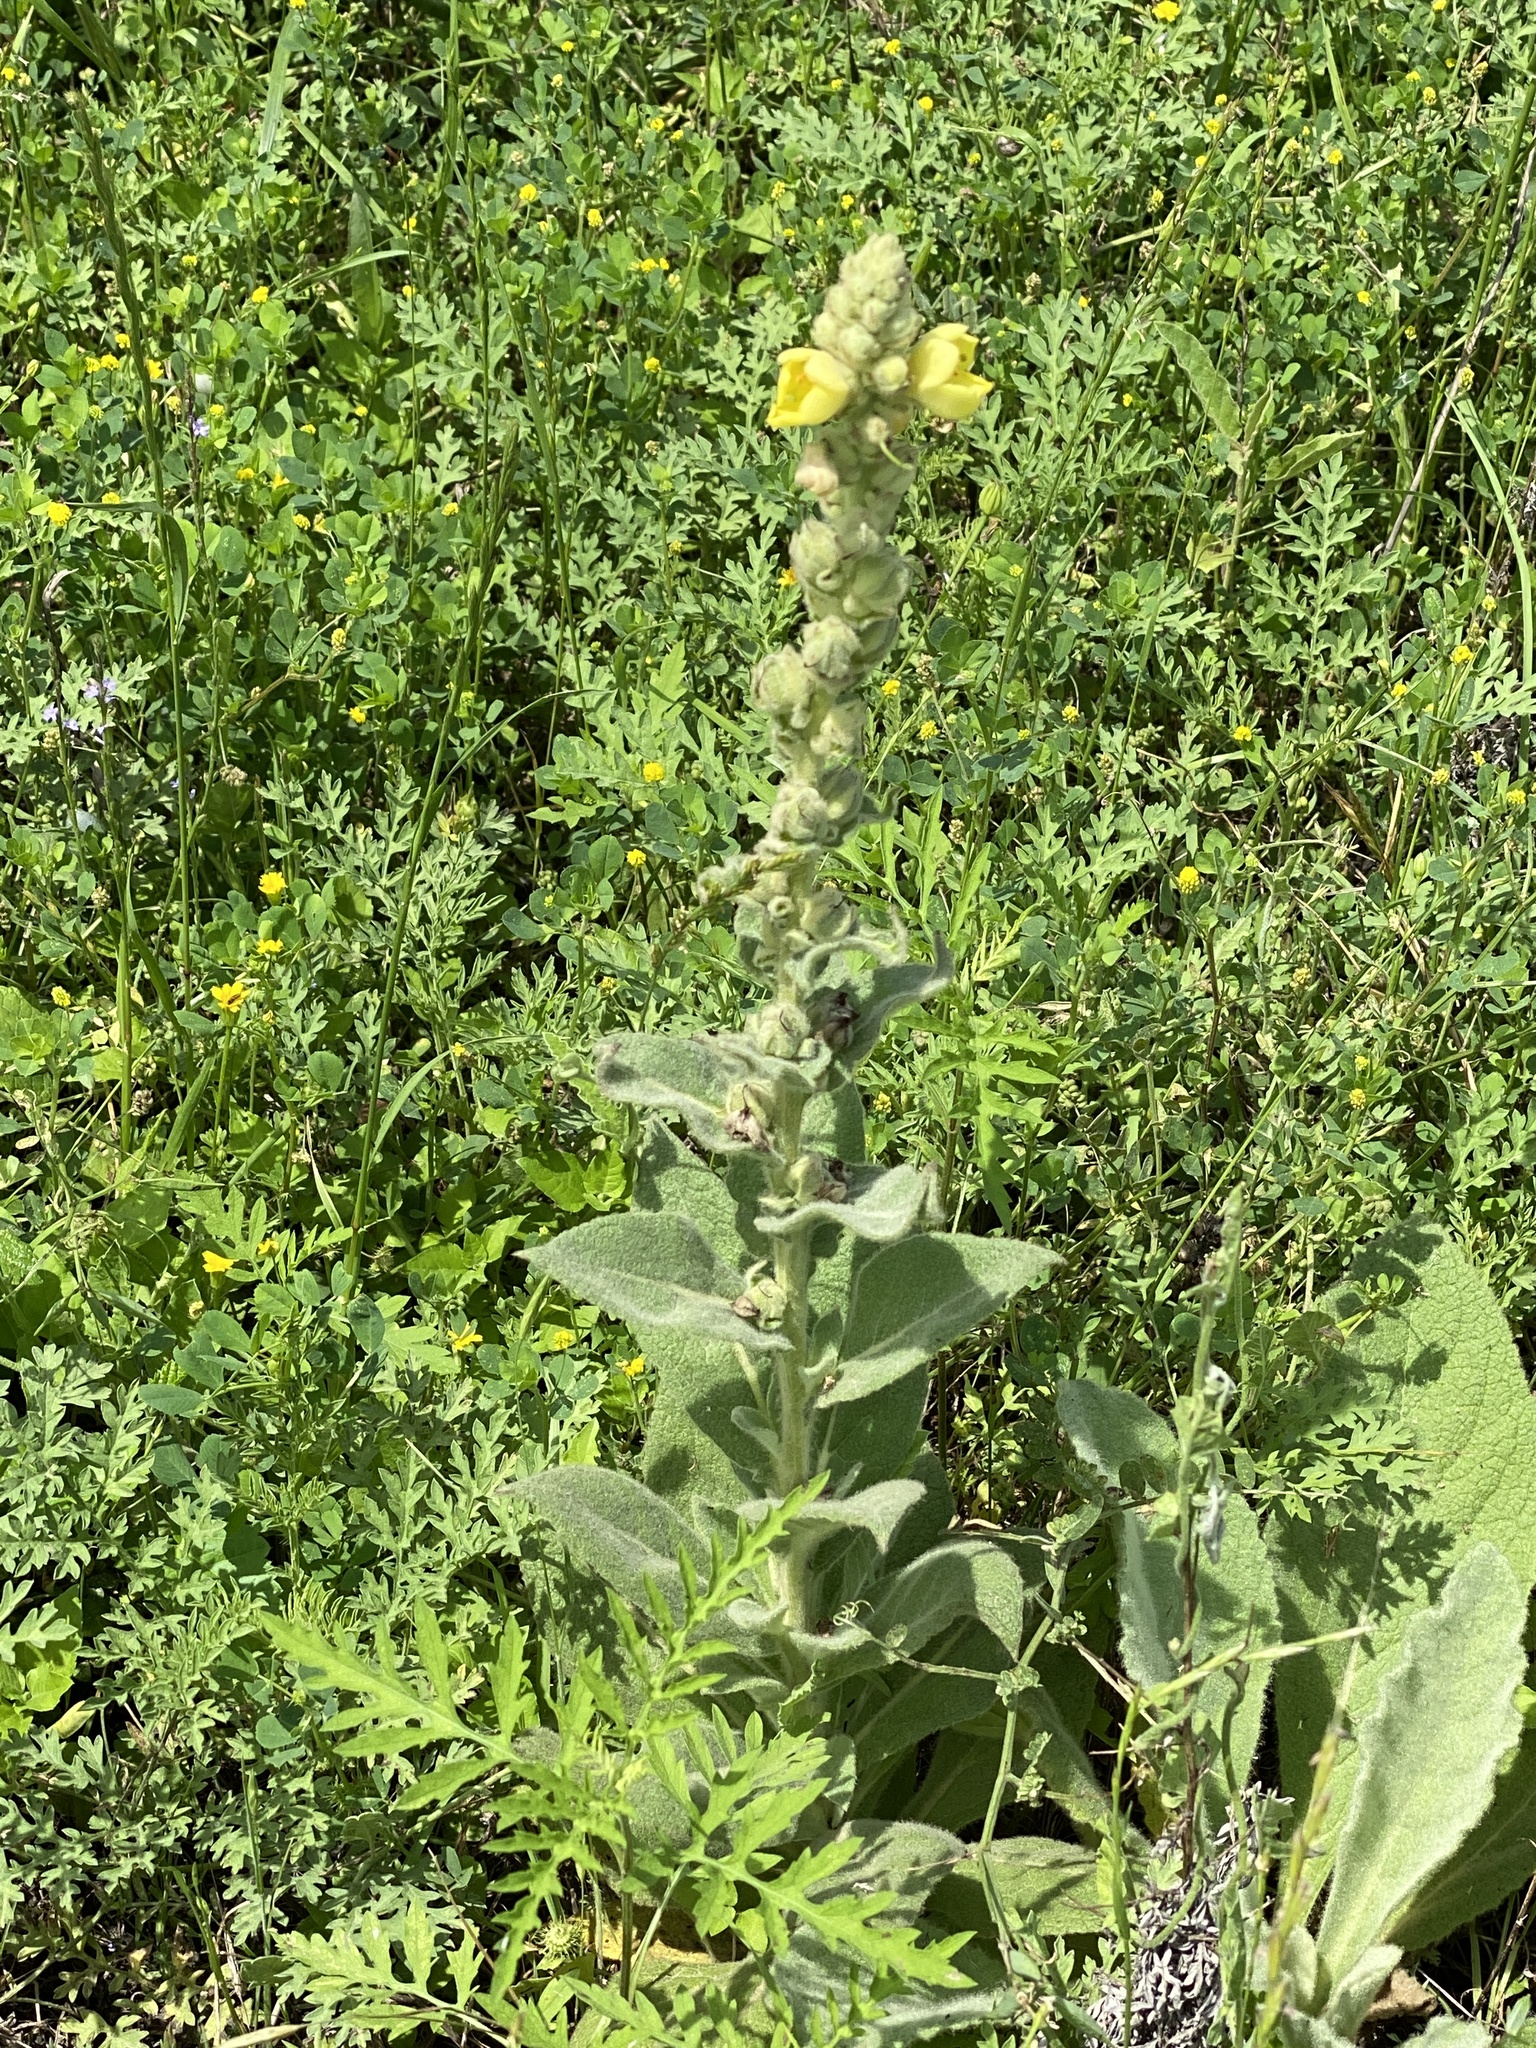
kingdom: Plantae
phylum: Tracheophyta
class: Magnoliopsida
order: Lamiales
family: Scrophulariaceae
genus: Verbascum
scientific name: Verbascum thapsus
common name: Common mullein
